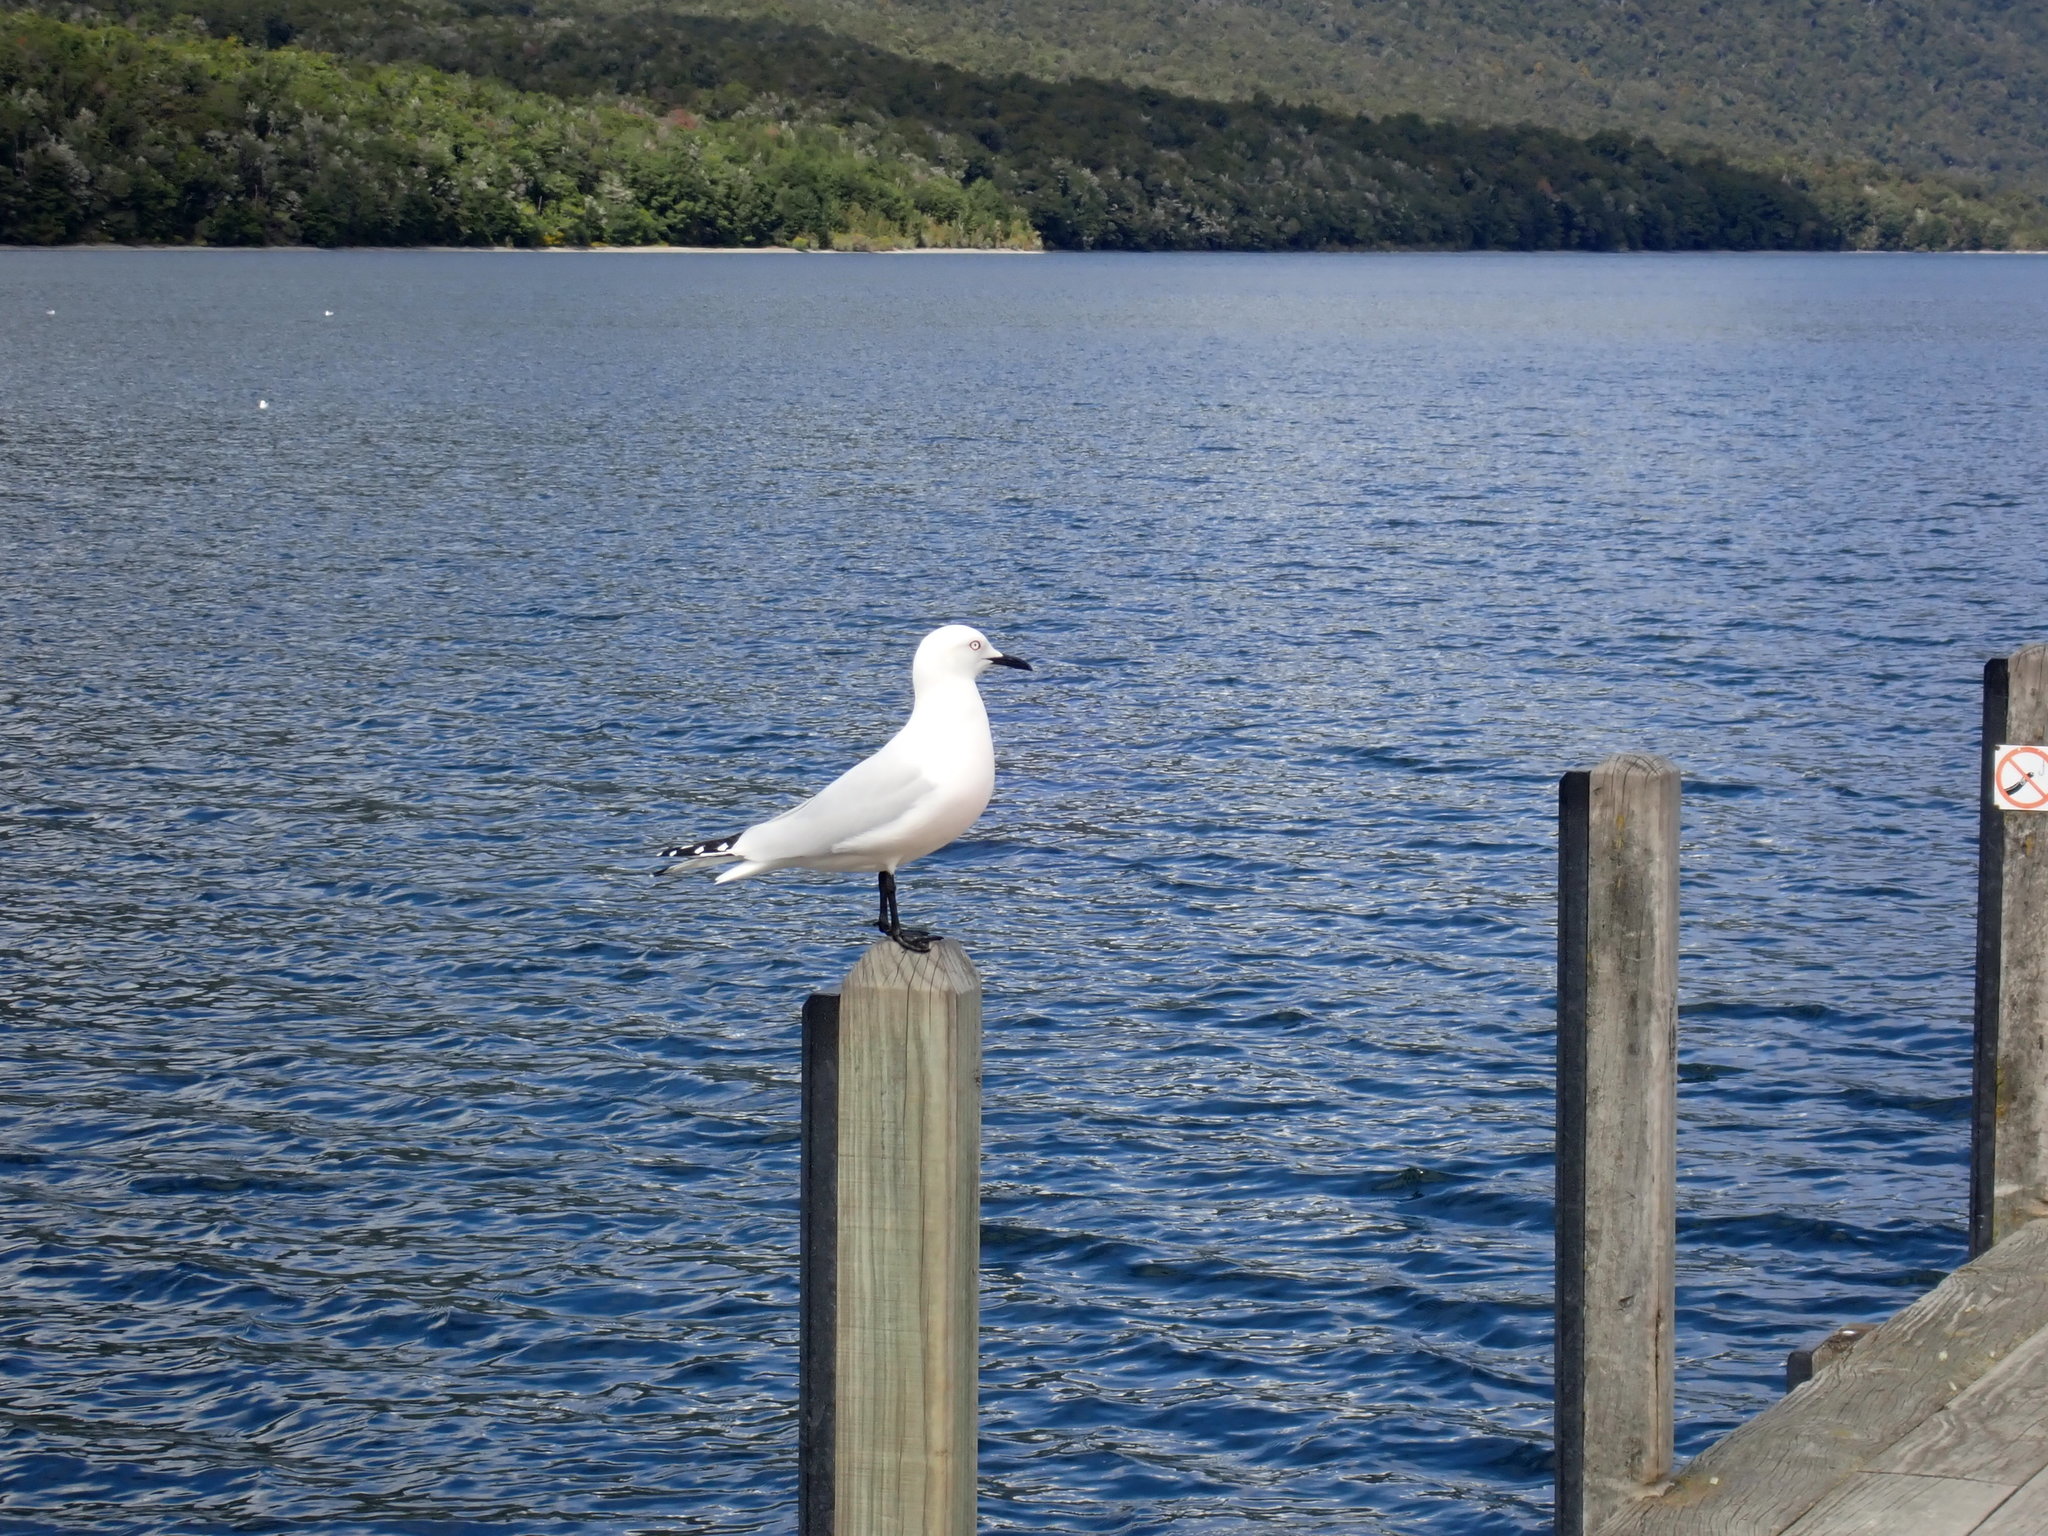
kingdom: Animalia
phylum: Chordata
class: Aves
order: Charadriiformes
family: Laridae
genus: Chroicocephalus
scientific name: Chroicocephalus bulleri
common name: Black-billed gull
